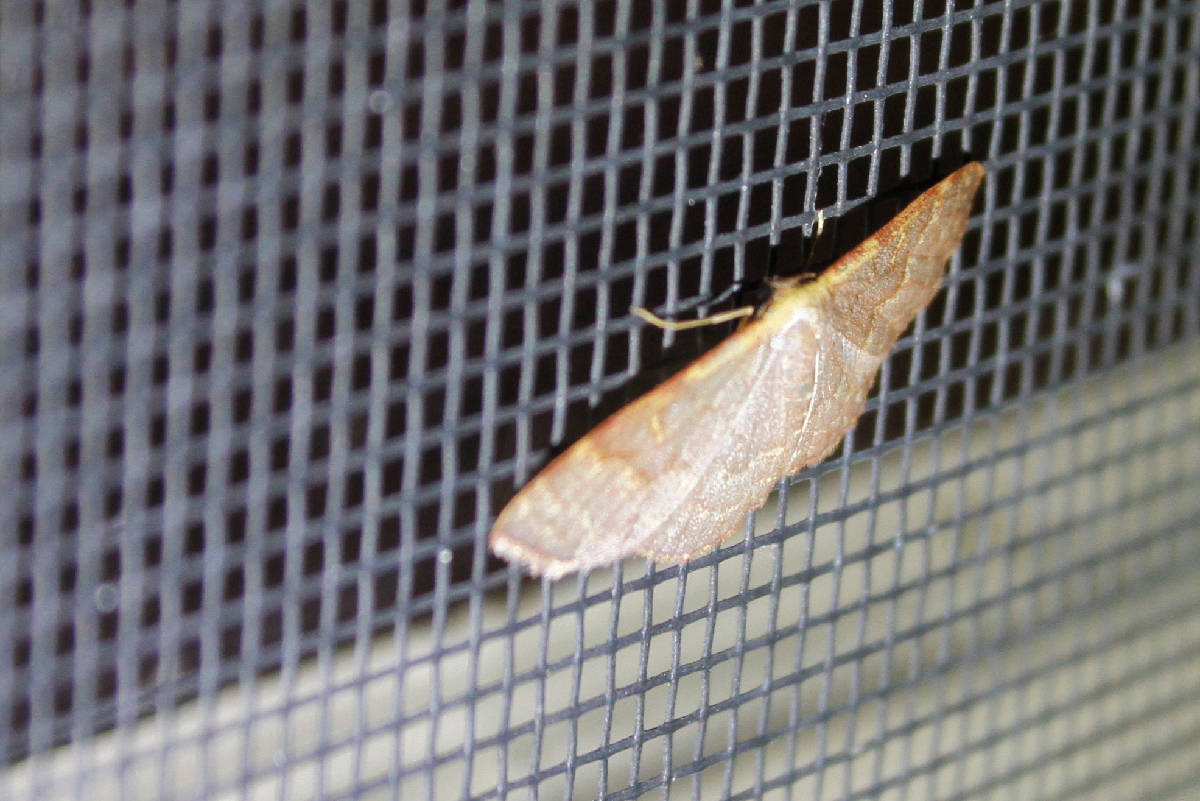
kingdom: Animalia
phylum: Arthropoda
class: Insecta
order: Lepidoptera
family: Geometridae
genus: Leptostales
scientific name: Leptostales pannaria
